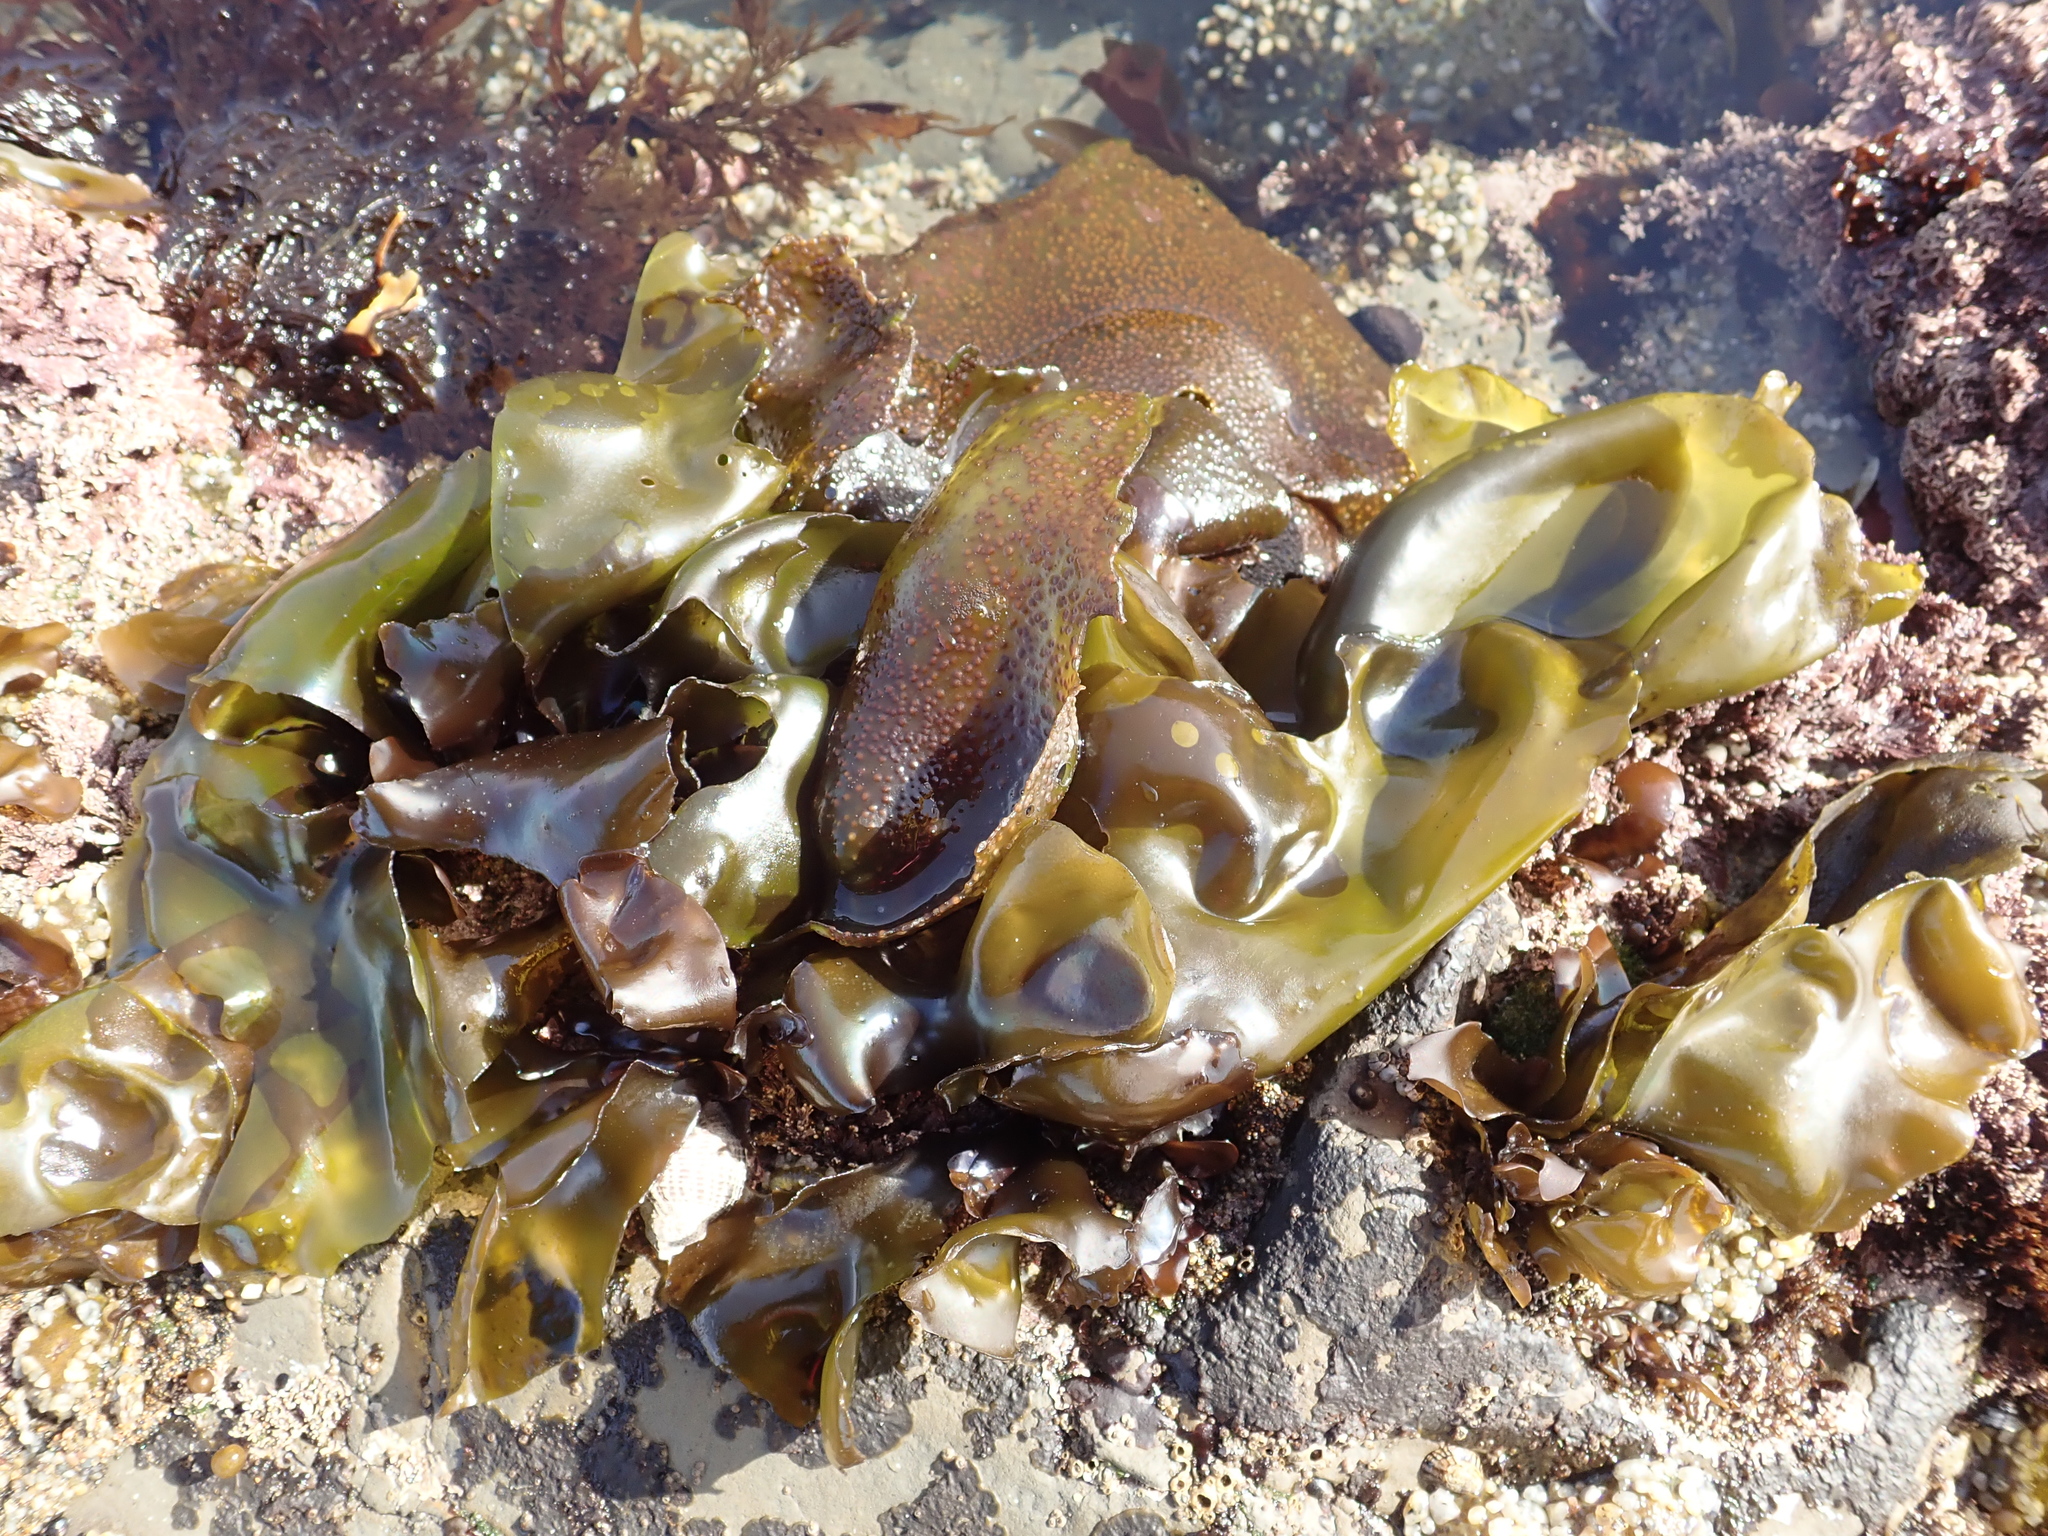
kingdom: Plantae
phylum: Rhodophyta
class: Florideophyceae
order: Gigartinales
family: Gigartinaceae
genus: Mazzaella
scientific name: Mazzaella flaccida
